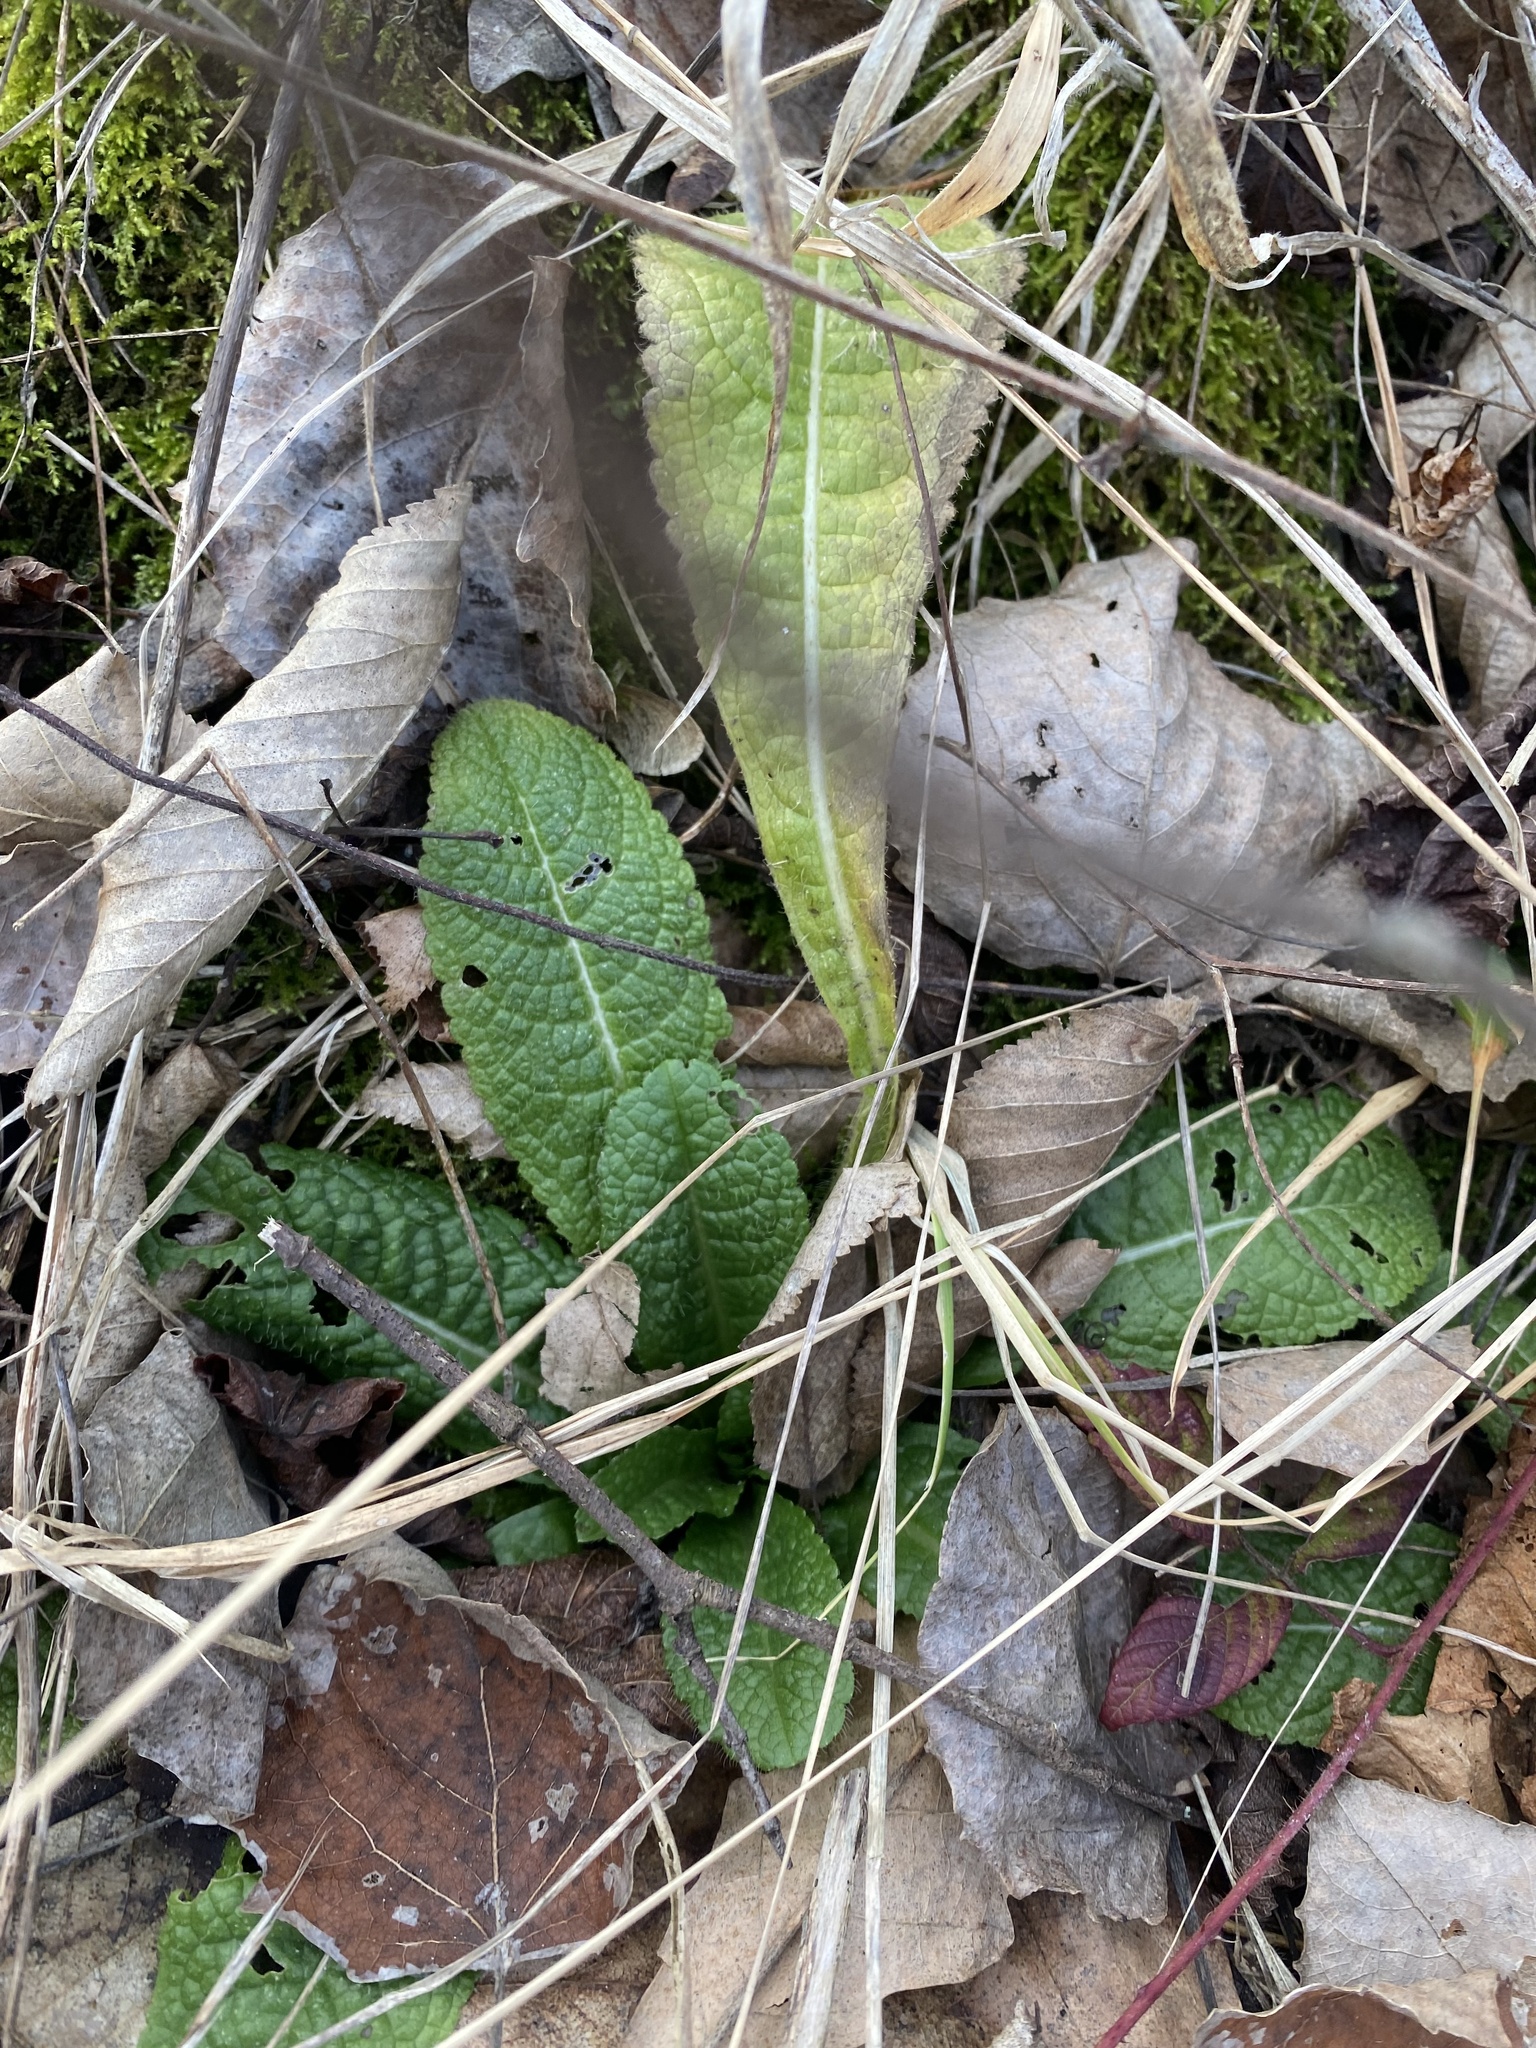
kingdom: Plantae
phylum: Tracheophyta
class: Magnoliopsida
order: Ericales
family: Primulaceae
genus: Primula
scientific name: Primula vulgaris
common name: Primrose
